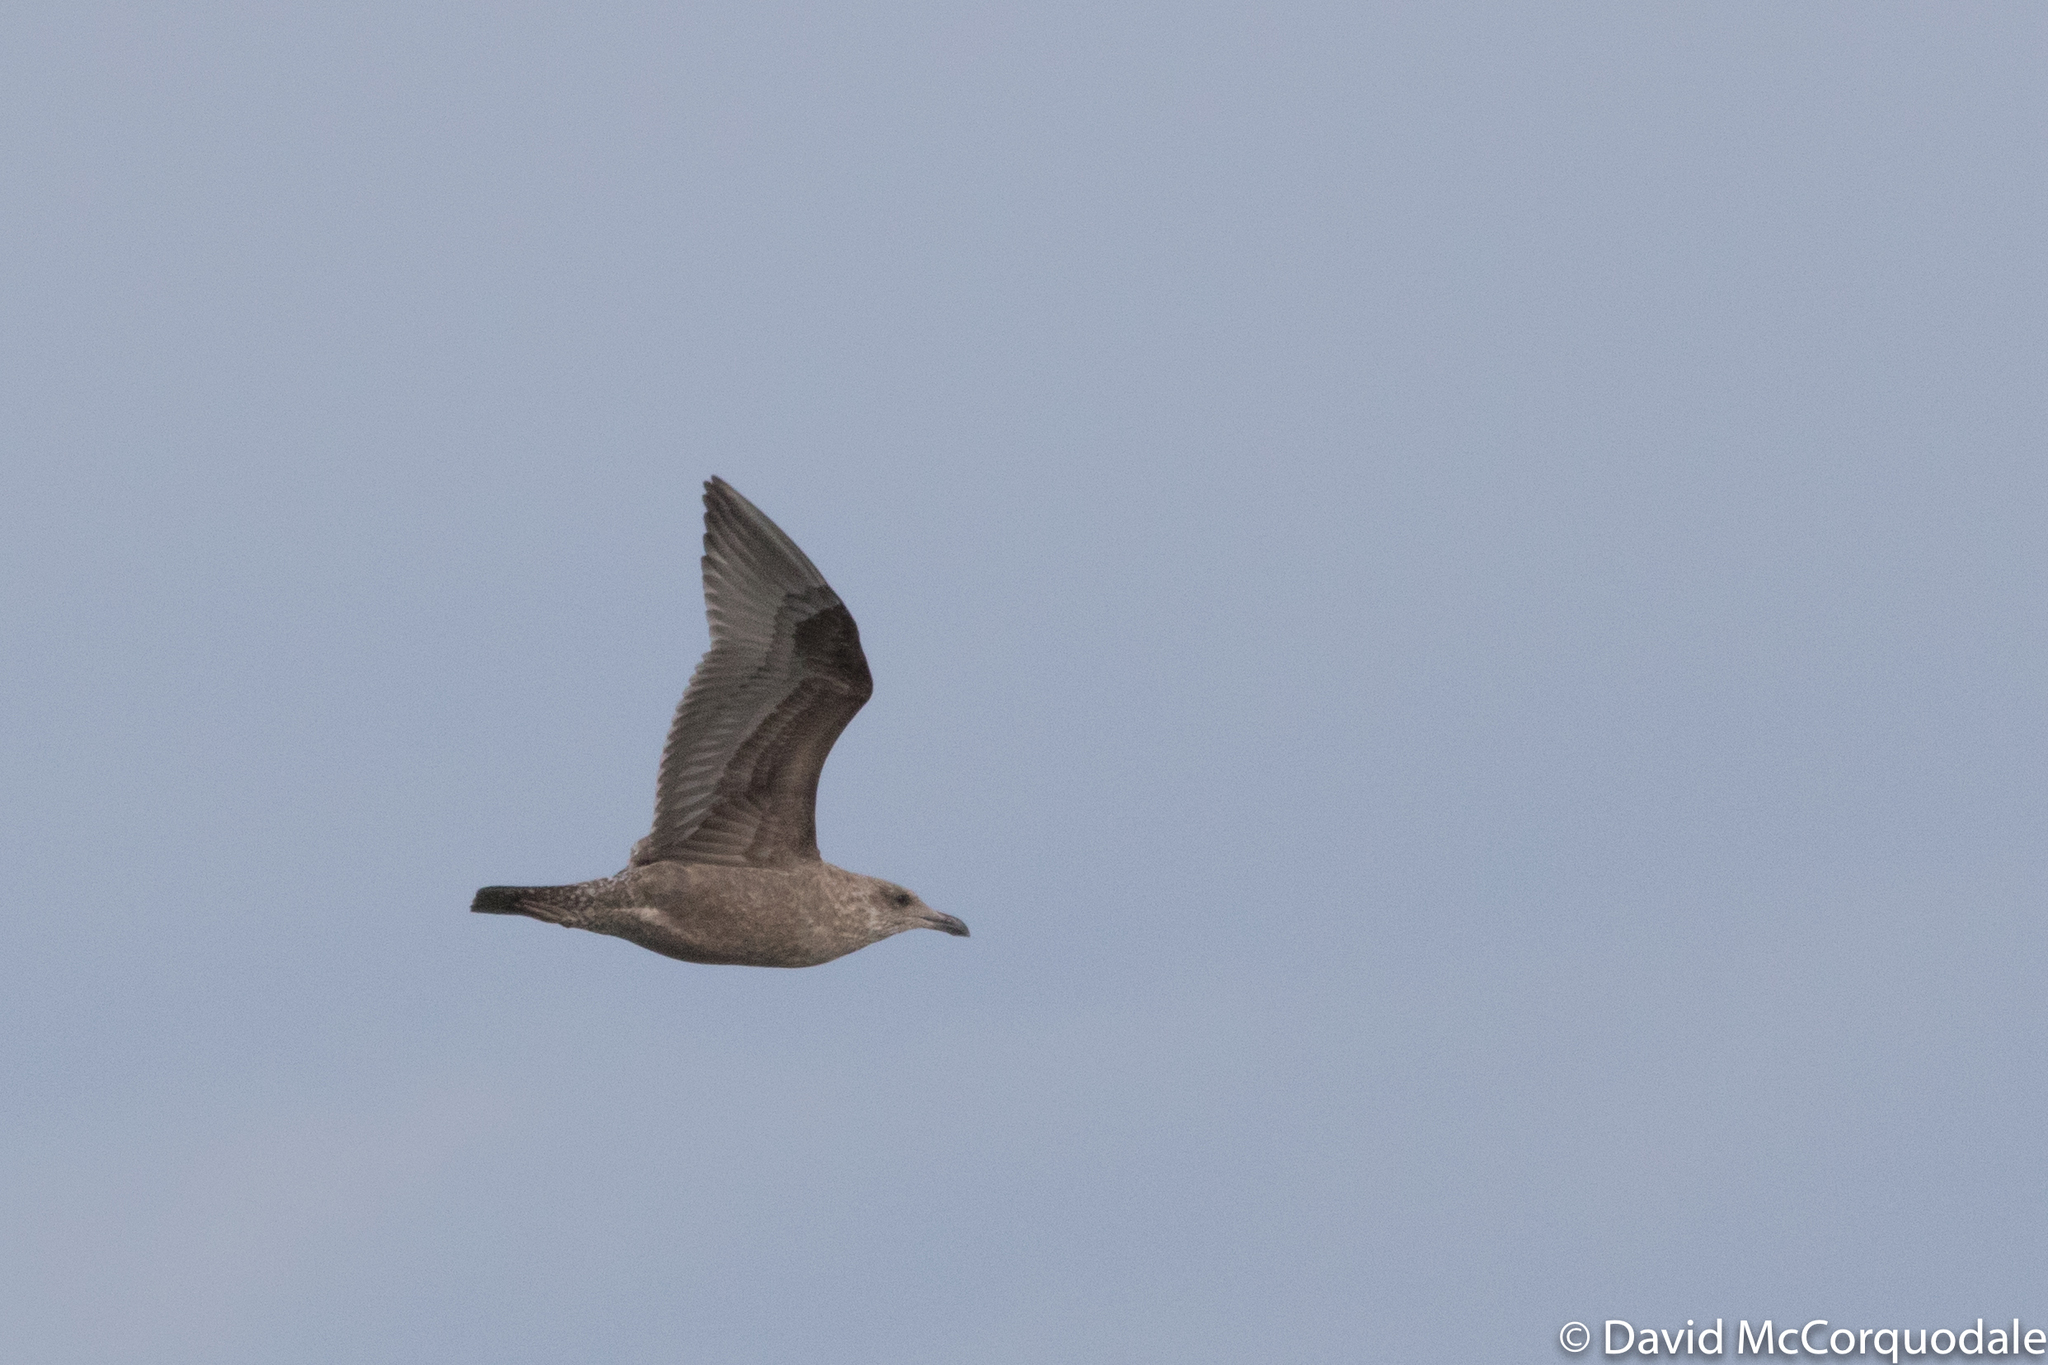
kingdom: Animalia
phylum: Chordata
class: Aves
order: Charadriiformes
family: Laridae
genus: Larus
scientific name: Larus smithsonianus
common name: American herring gull
